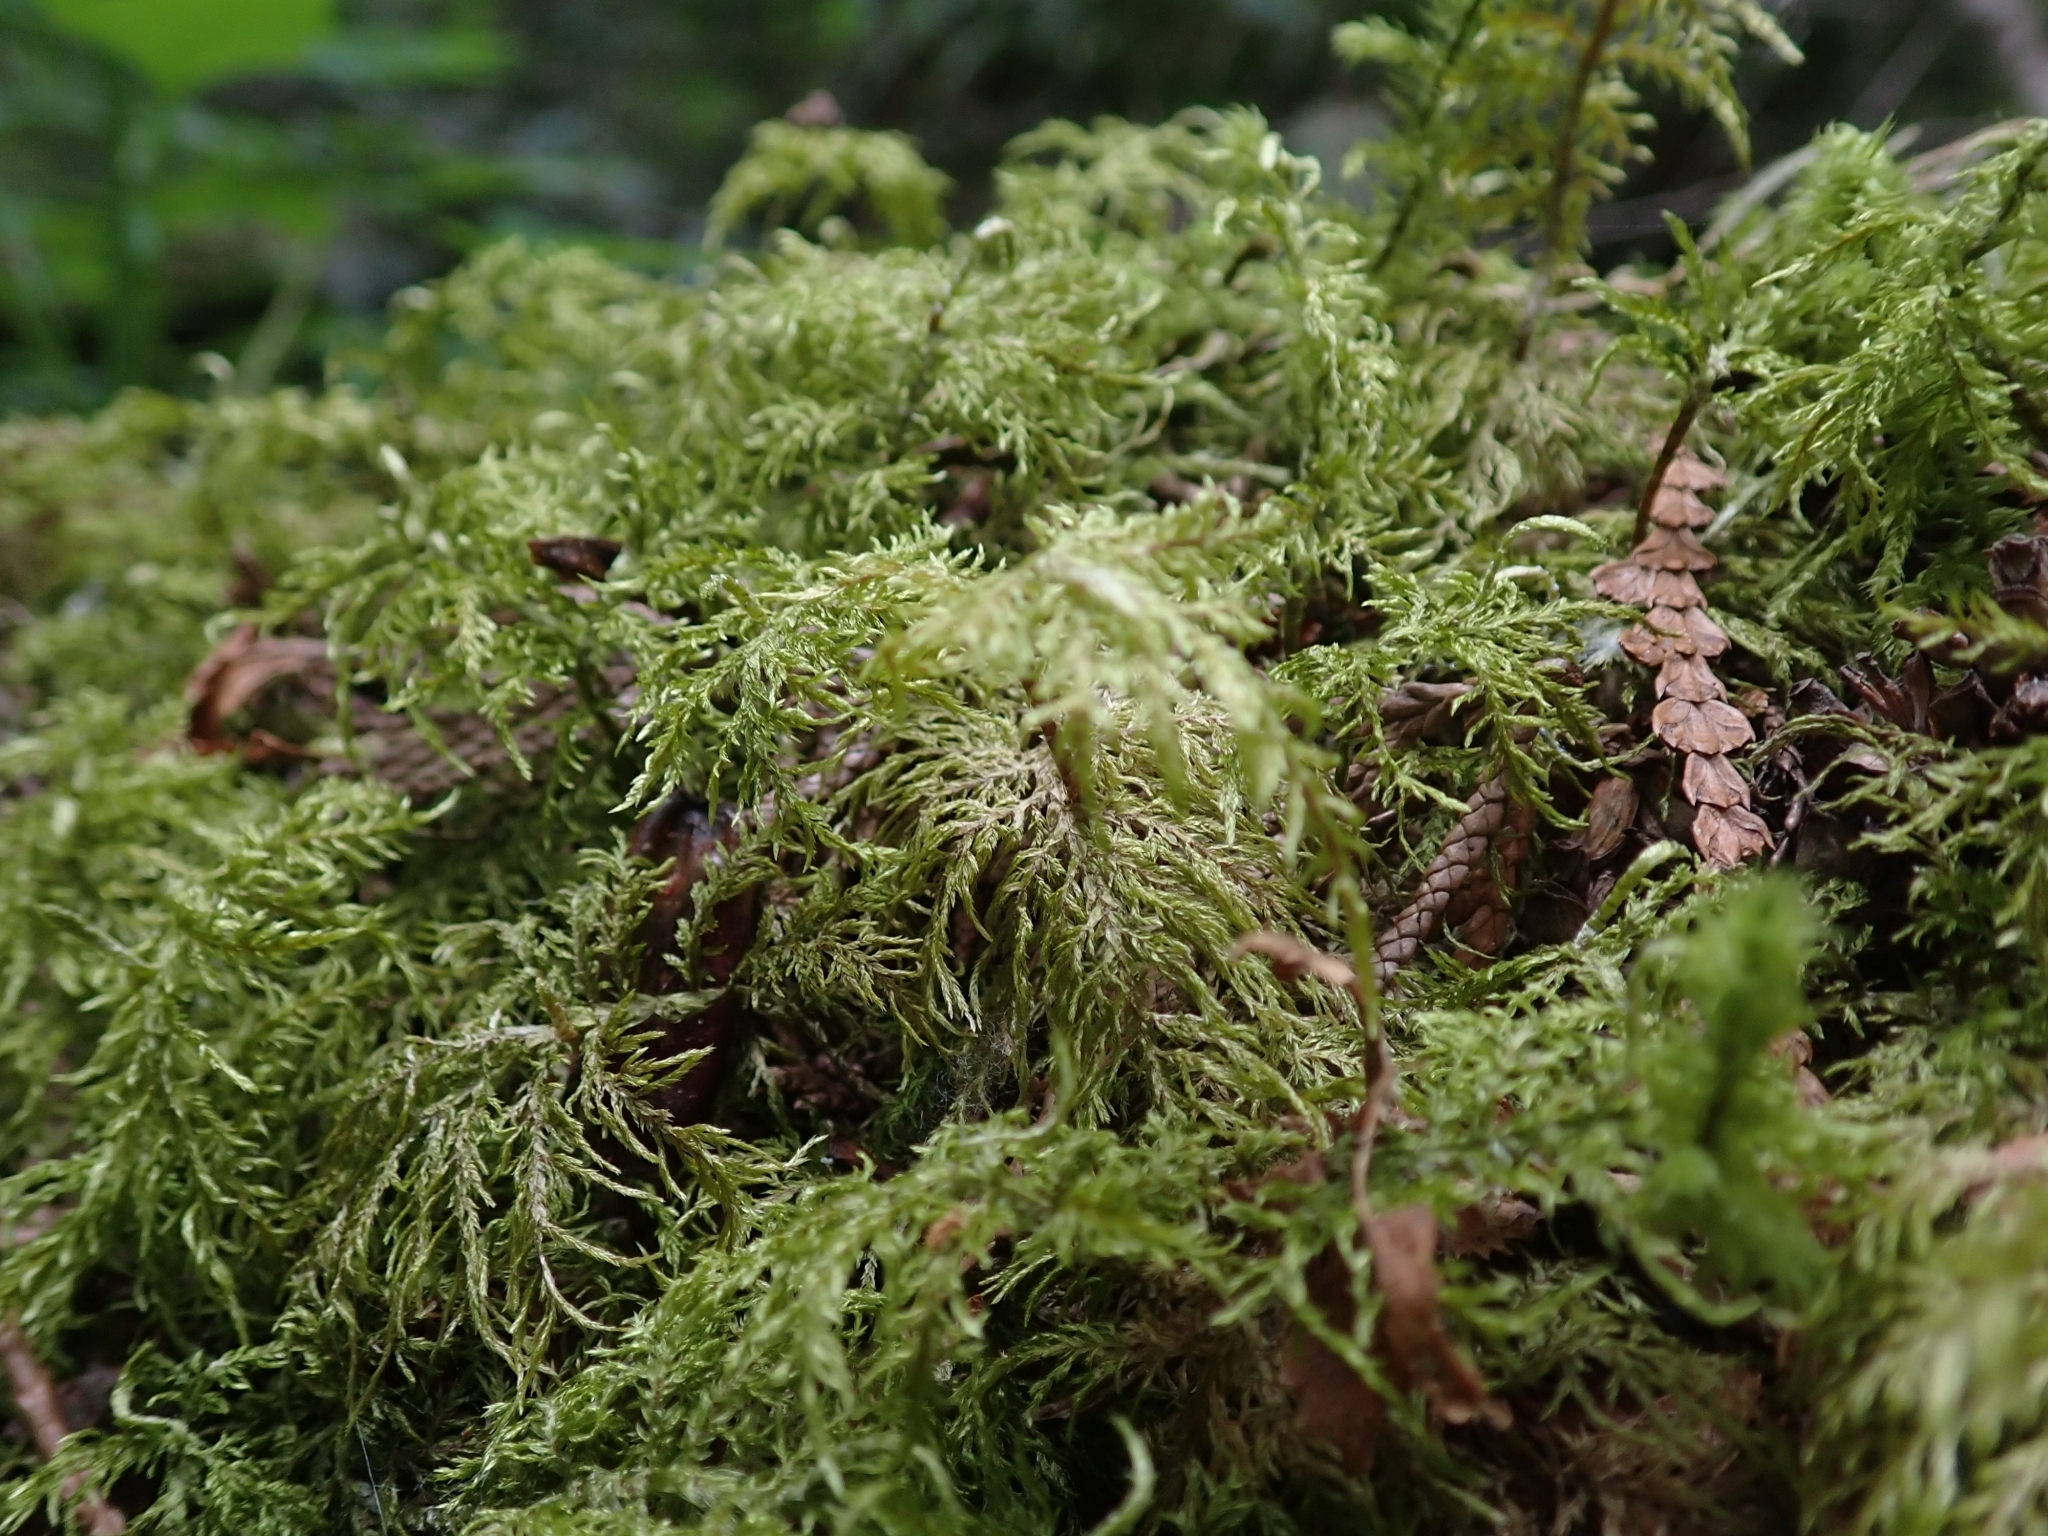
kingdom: Plantae
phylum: Bryophyta
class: Bryopsida
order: Hypnales
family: Hylocomiaceae
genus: Hylocomium
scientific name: Hylocomium splendens
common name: Stairstep moss
